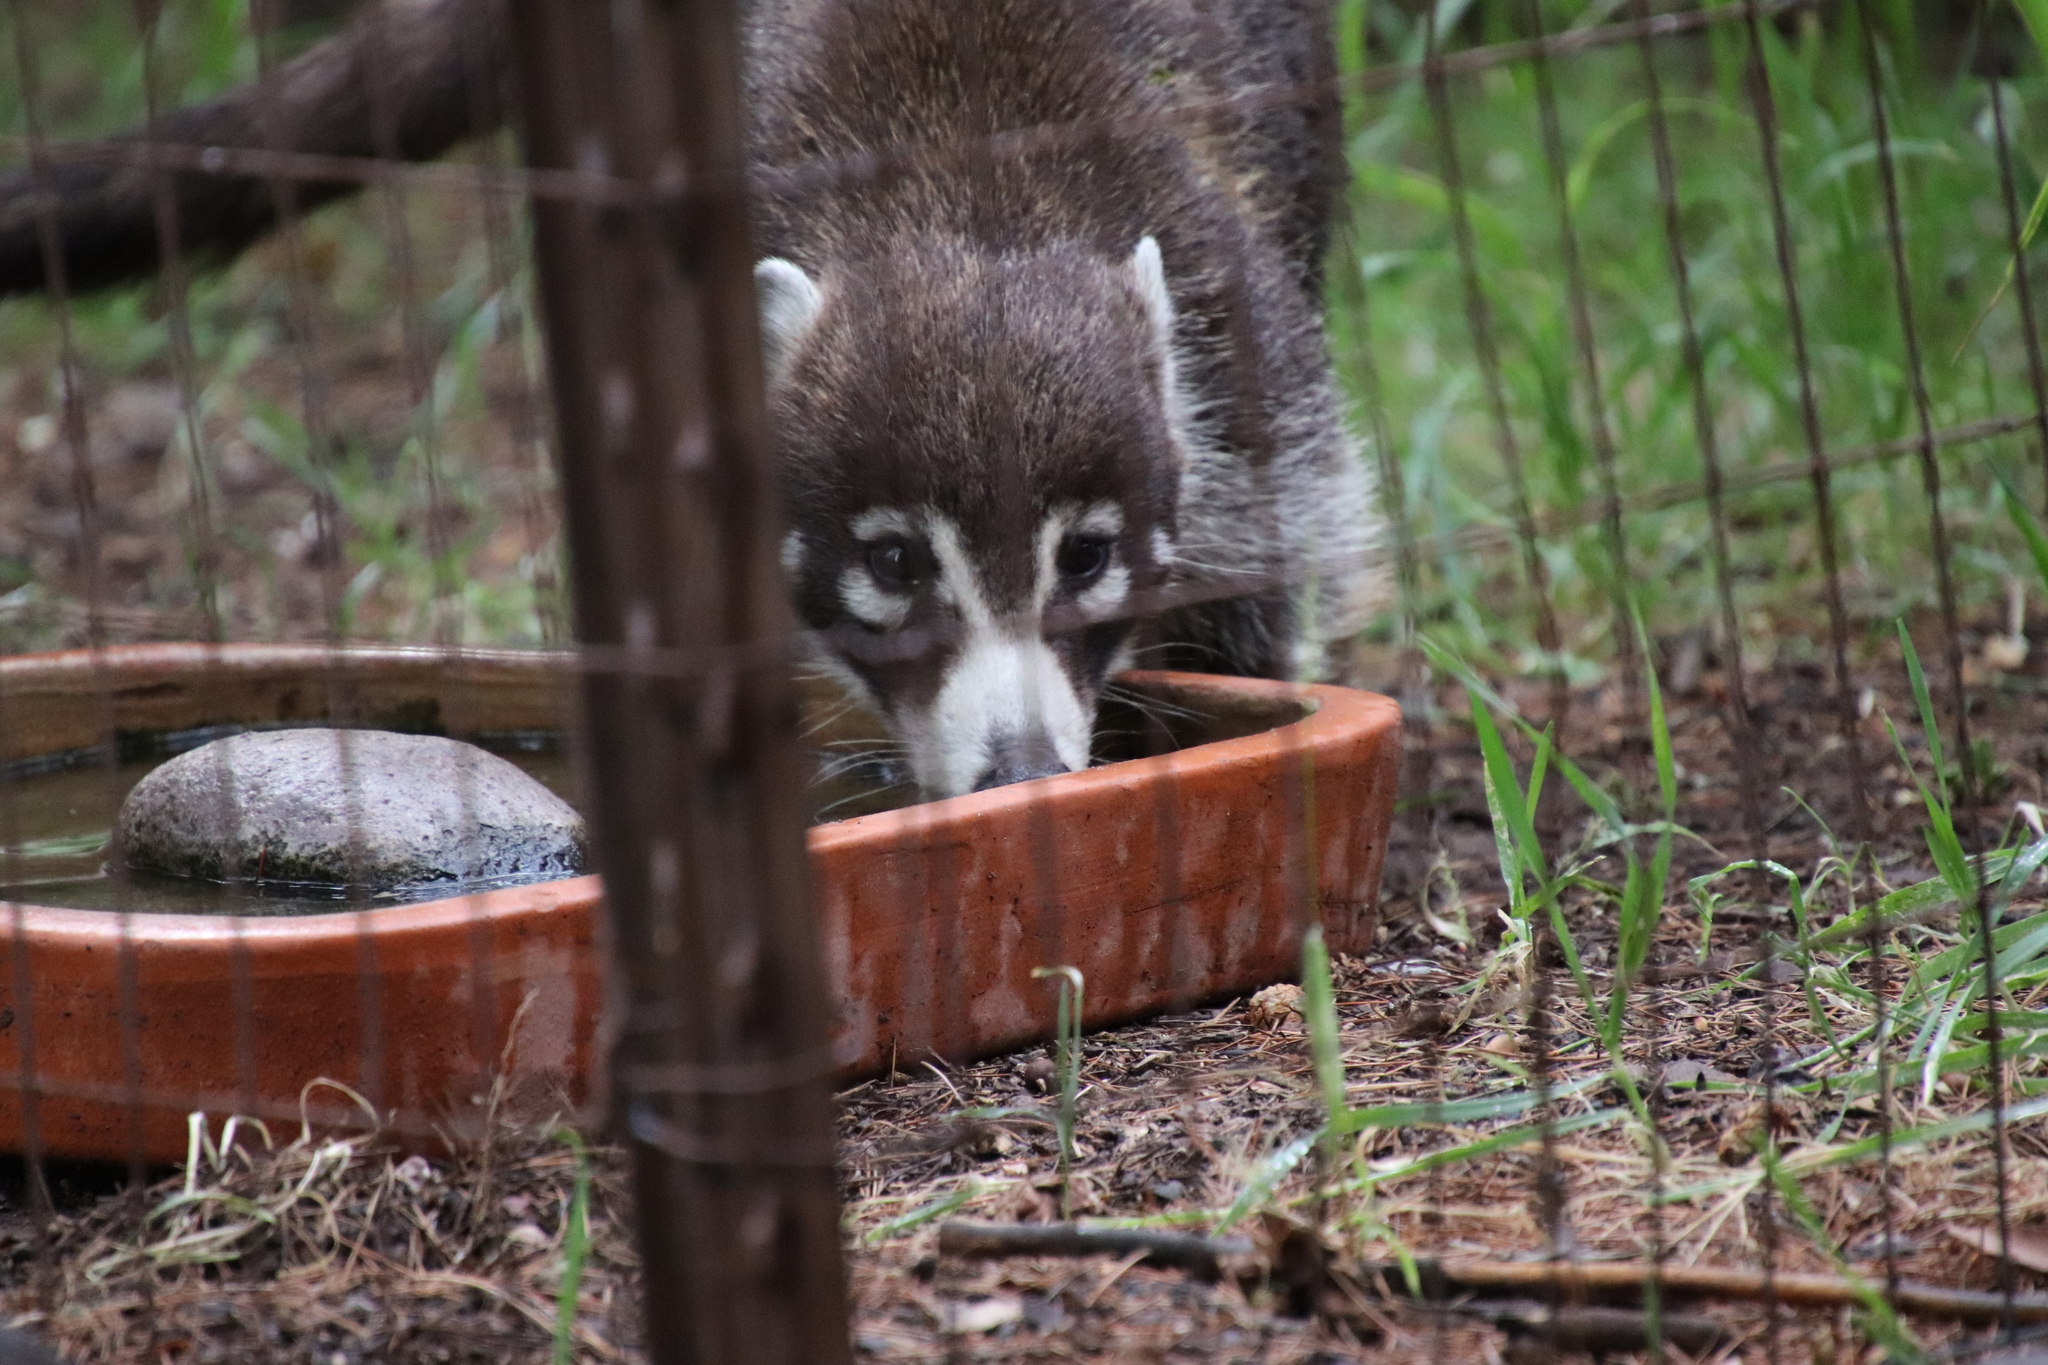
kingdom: Animalia
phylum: Chordata
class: Mammalia
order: Carnivora
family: Procyonidae
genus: Nasua
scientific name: Nasua narica
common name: White-nosed coati
